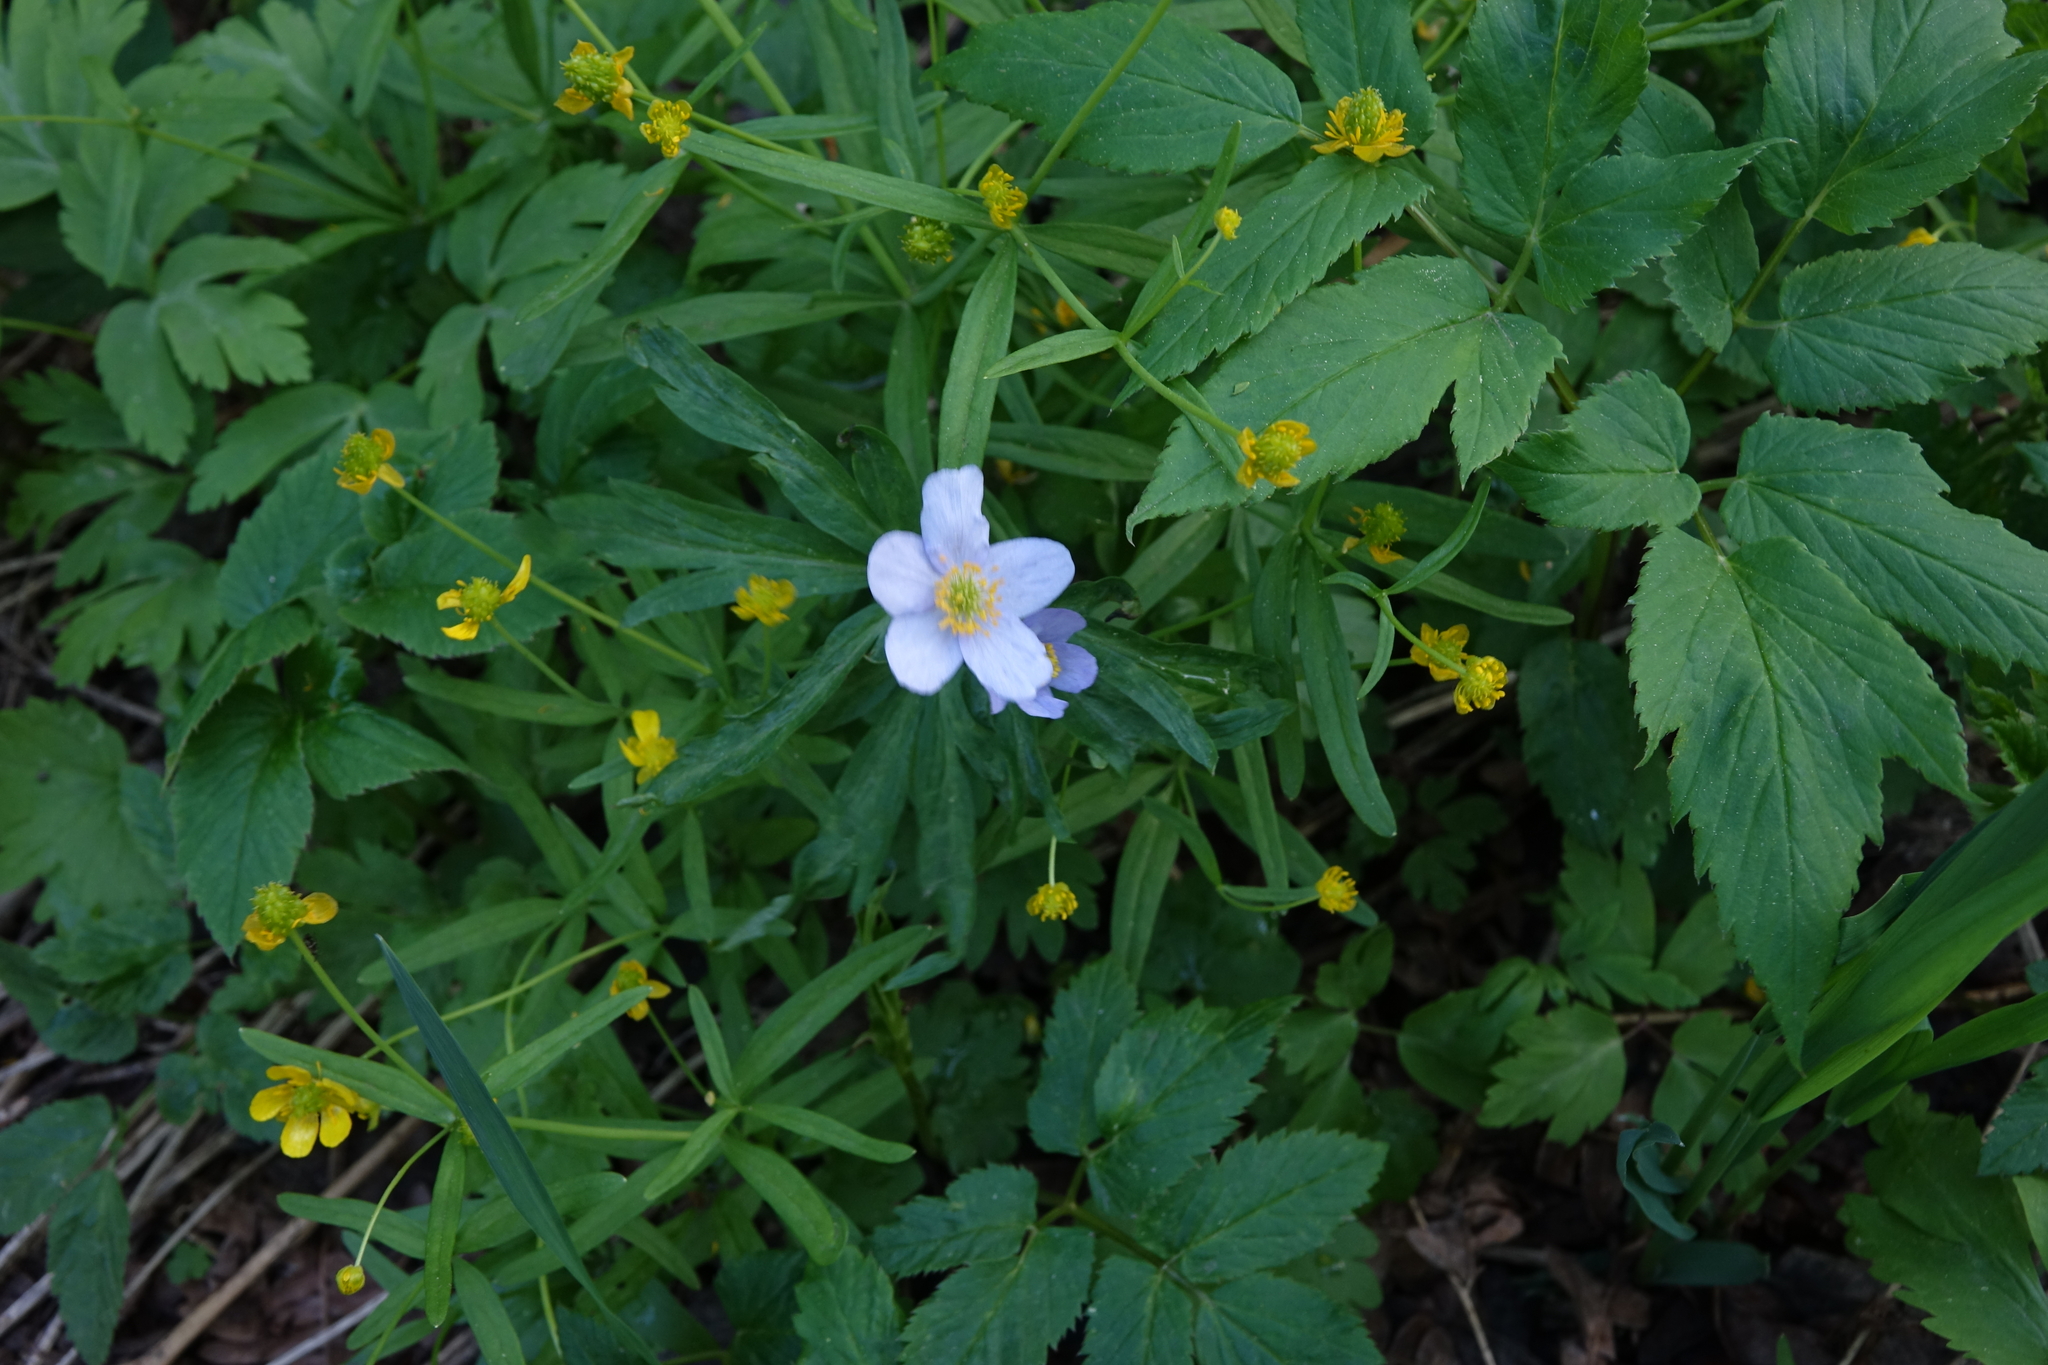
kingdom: Plantae
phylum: Tracheophyta
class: Magnoliopsida
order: Ranunculales
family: Ranunculaceae
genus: Anemone
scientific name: Anemone caerulea
